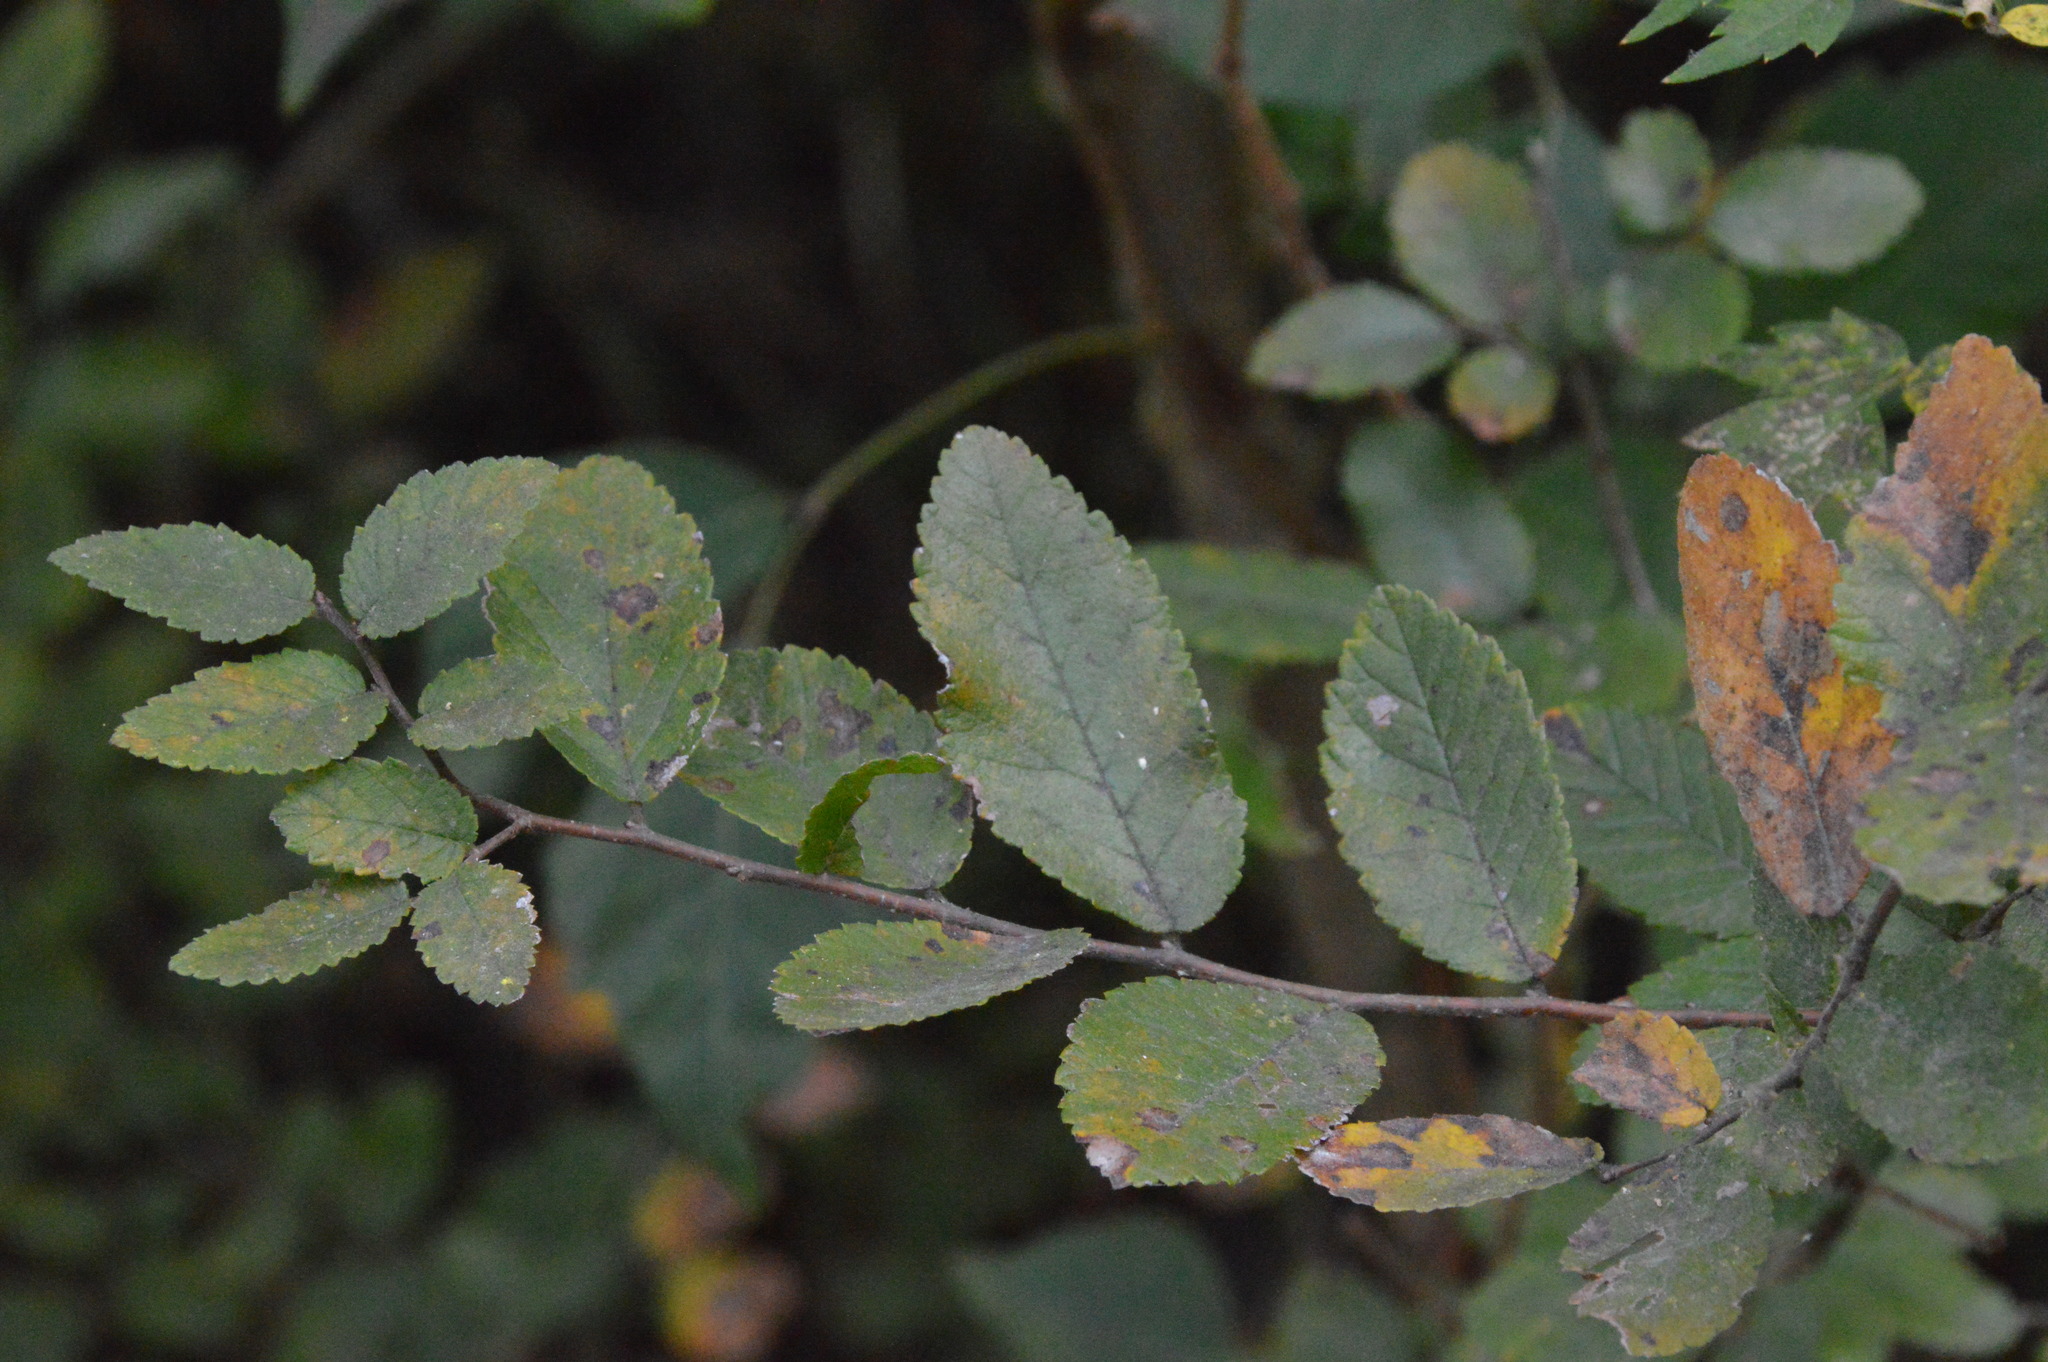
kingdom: Plantae
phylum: Tracheophyta
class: Magnoliopsida
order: Rosales
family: Ulmaceae
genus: Ulmus
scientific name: Ulmus crassifolia
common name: Basket elm
